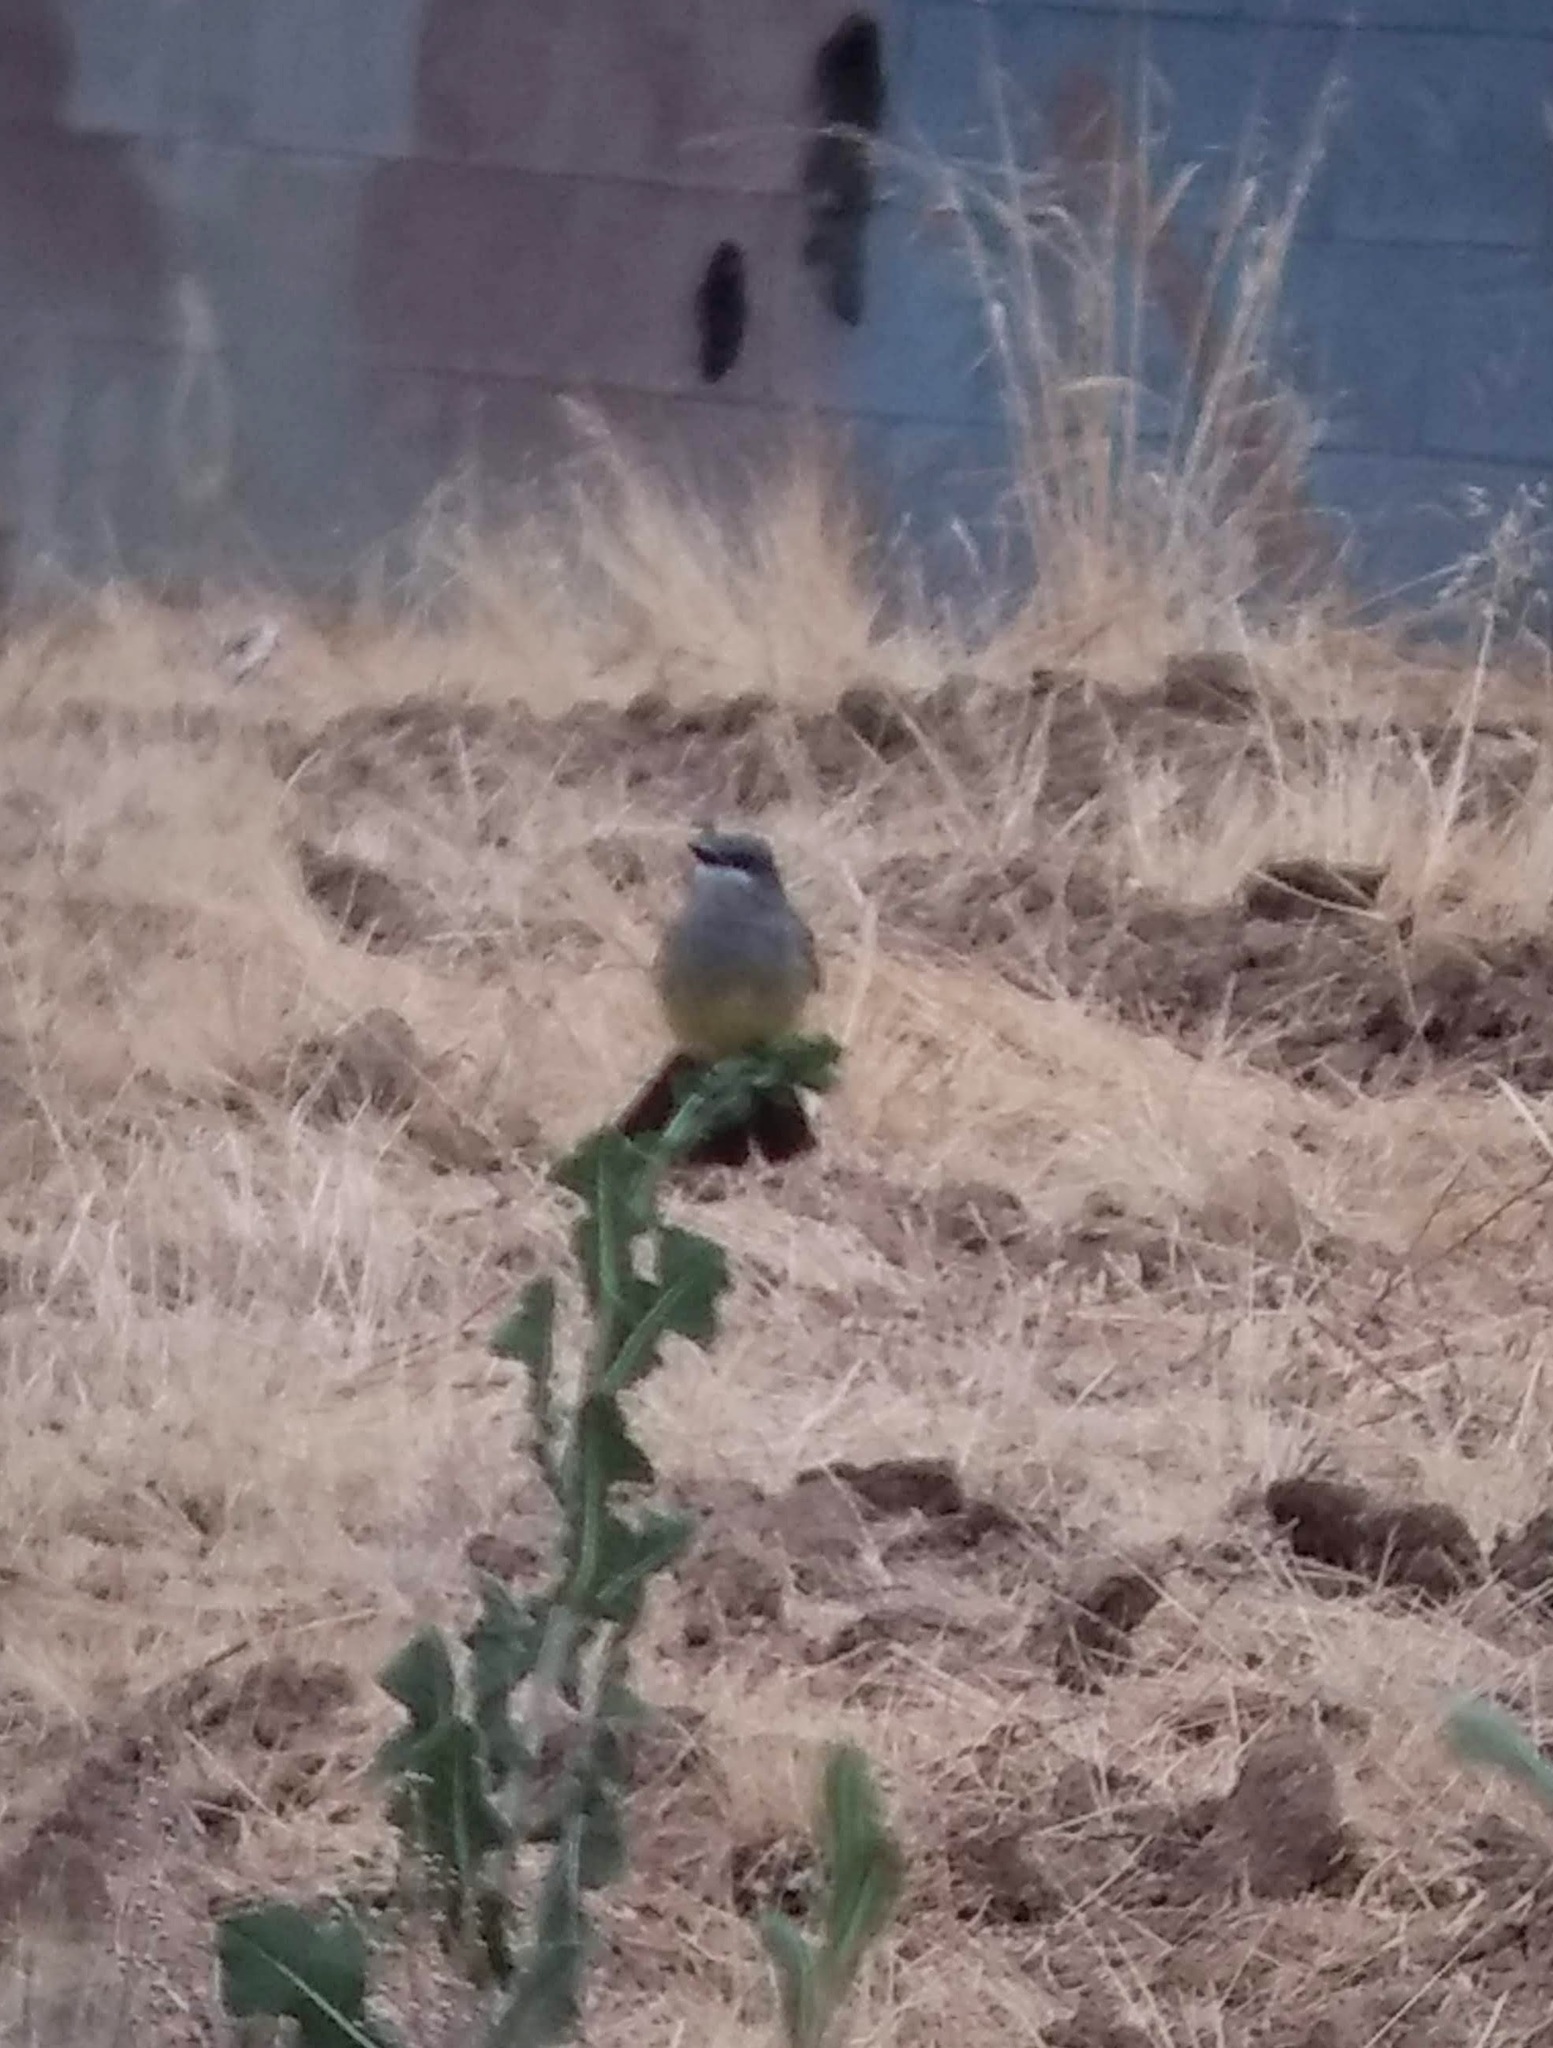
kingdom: Animalia
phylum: Chordata
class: Aves
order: Passeriformes
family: Tyrannidae
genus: Tyrannus
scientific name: Tyrannus vociferans
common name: Cassin's kingbird
